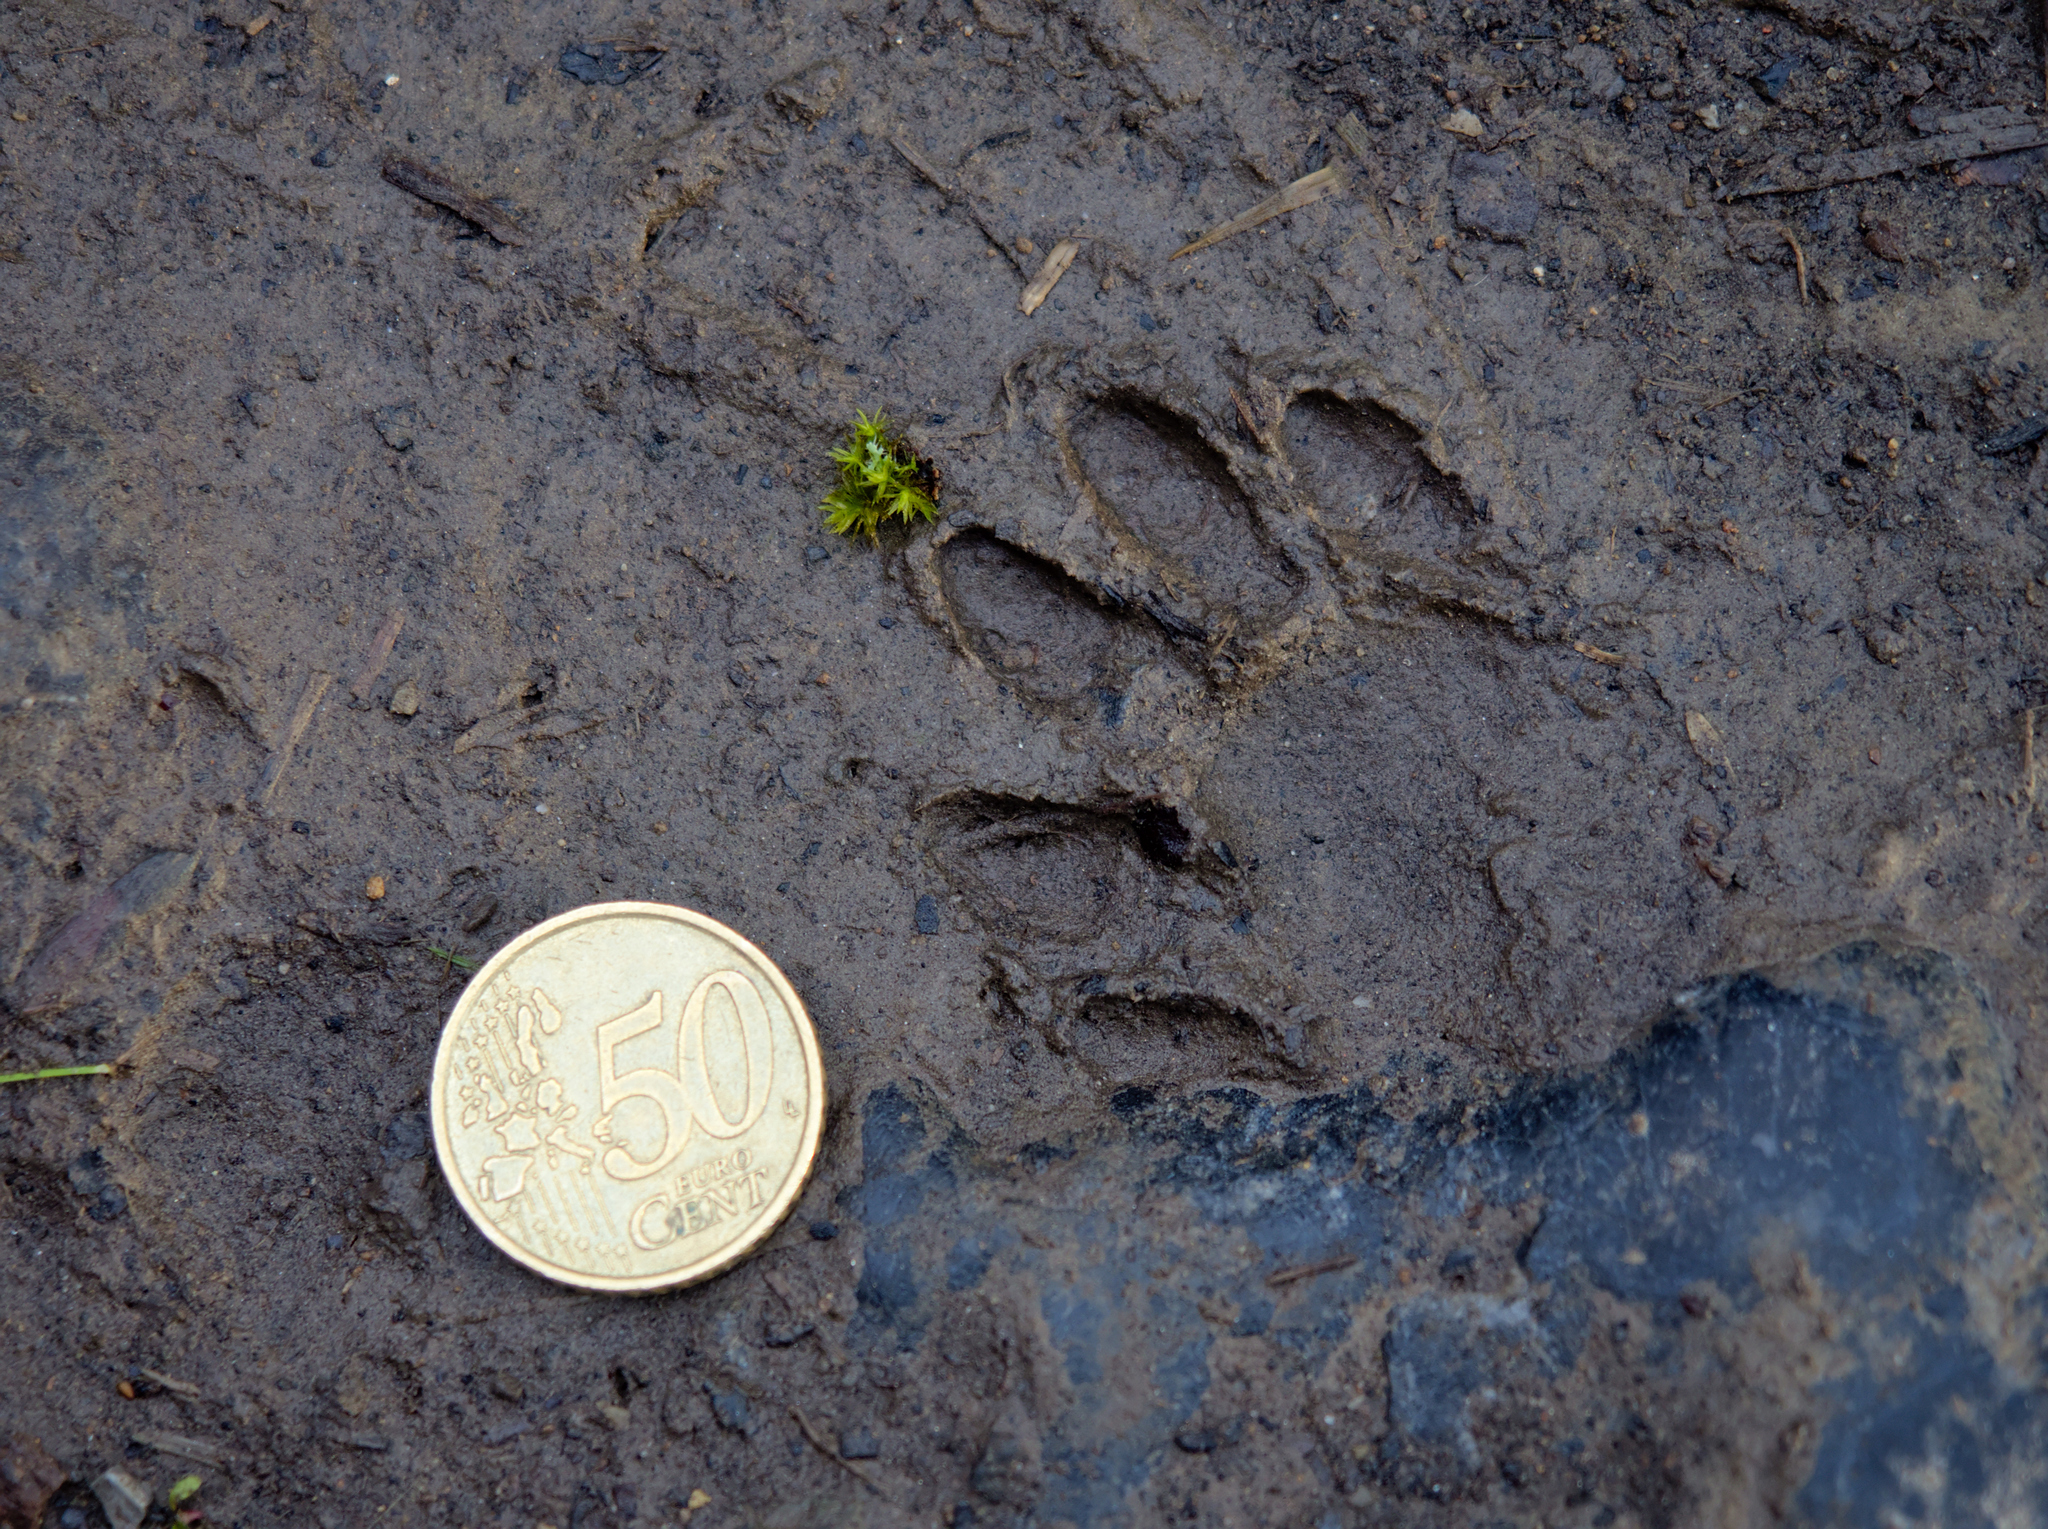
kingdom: Animalia
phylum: Chordata
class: Mammalia
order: Carnivora
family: Procyonidae
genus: Procyon
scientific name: Procyon lotor
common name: Raccoon
